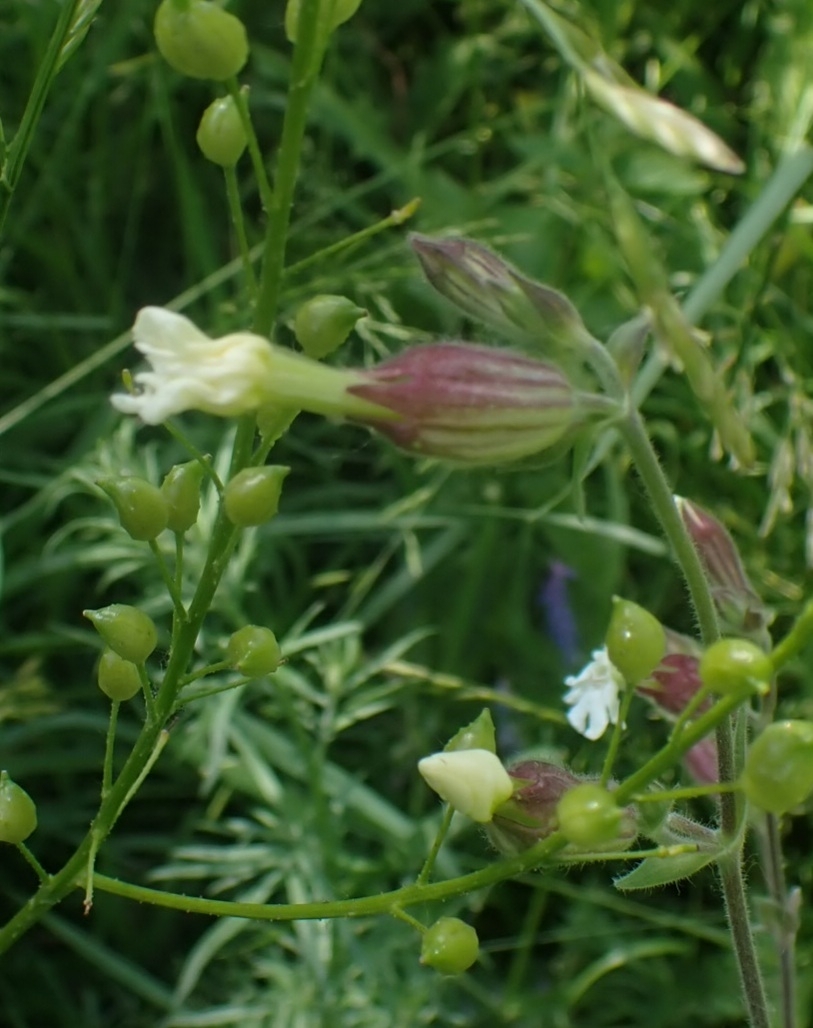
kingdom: Plantae
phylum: Tracheophyta
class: Magnoliopsida
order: Caryophyllales
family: Caryophyllaceae
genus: Silene
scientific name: Silene latifolia
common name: White campion
